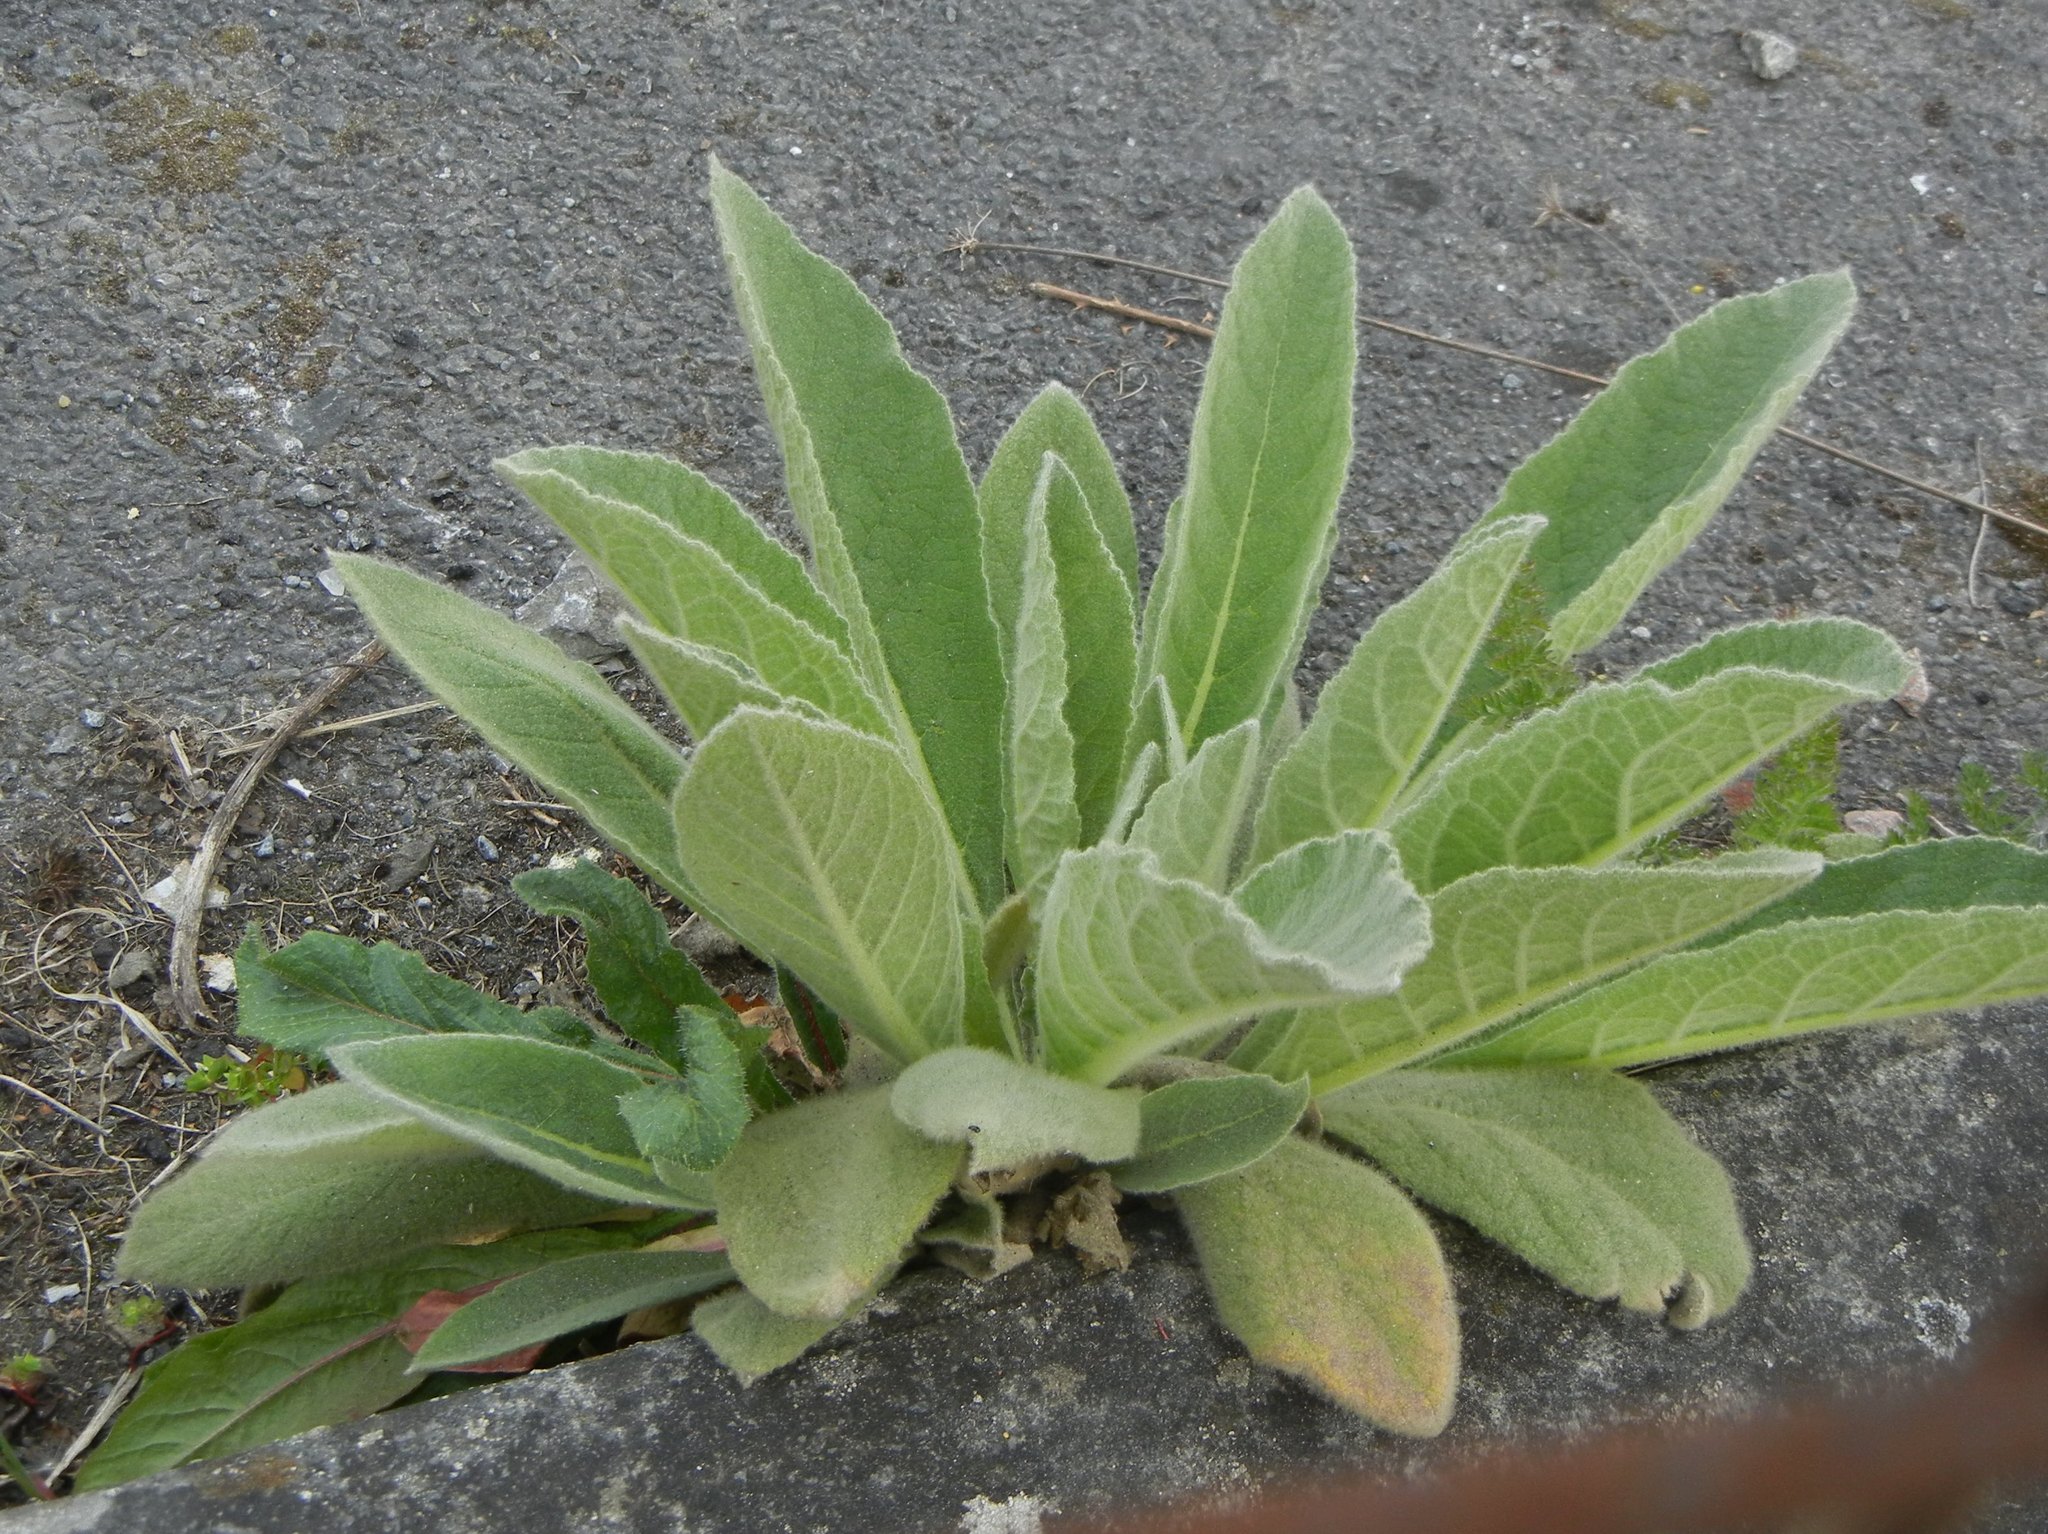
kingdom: Plantae
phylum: Tracheophyta
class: Magnoliopsida
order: Lamiales
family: Scrophulariaceae
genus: Verbascum
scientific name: Verbascum thapsus
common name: Common mullein
